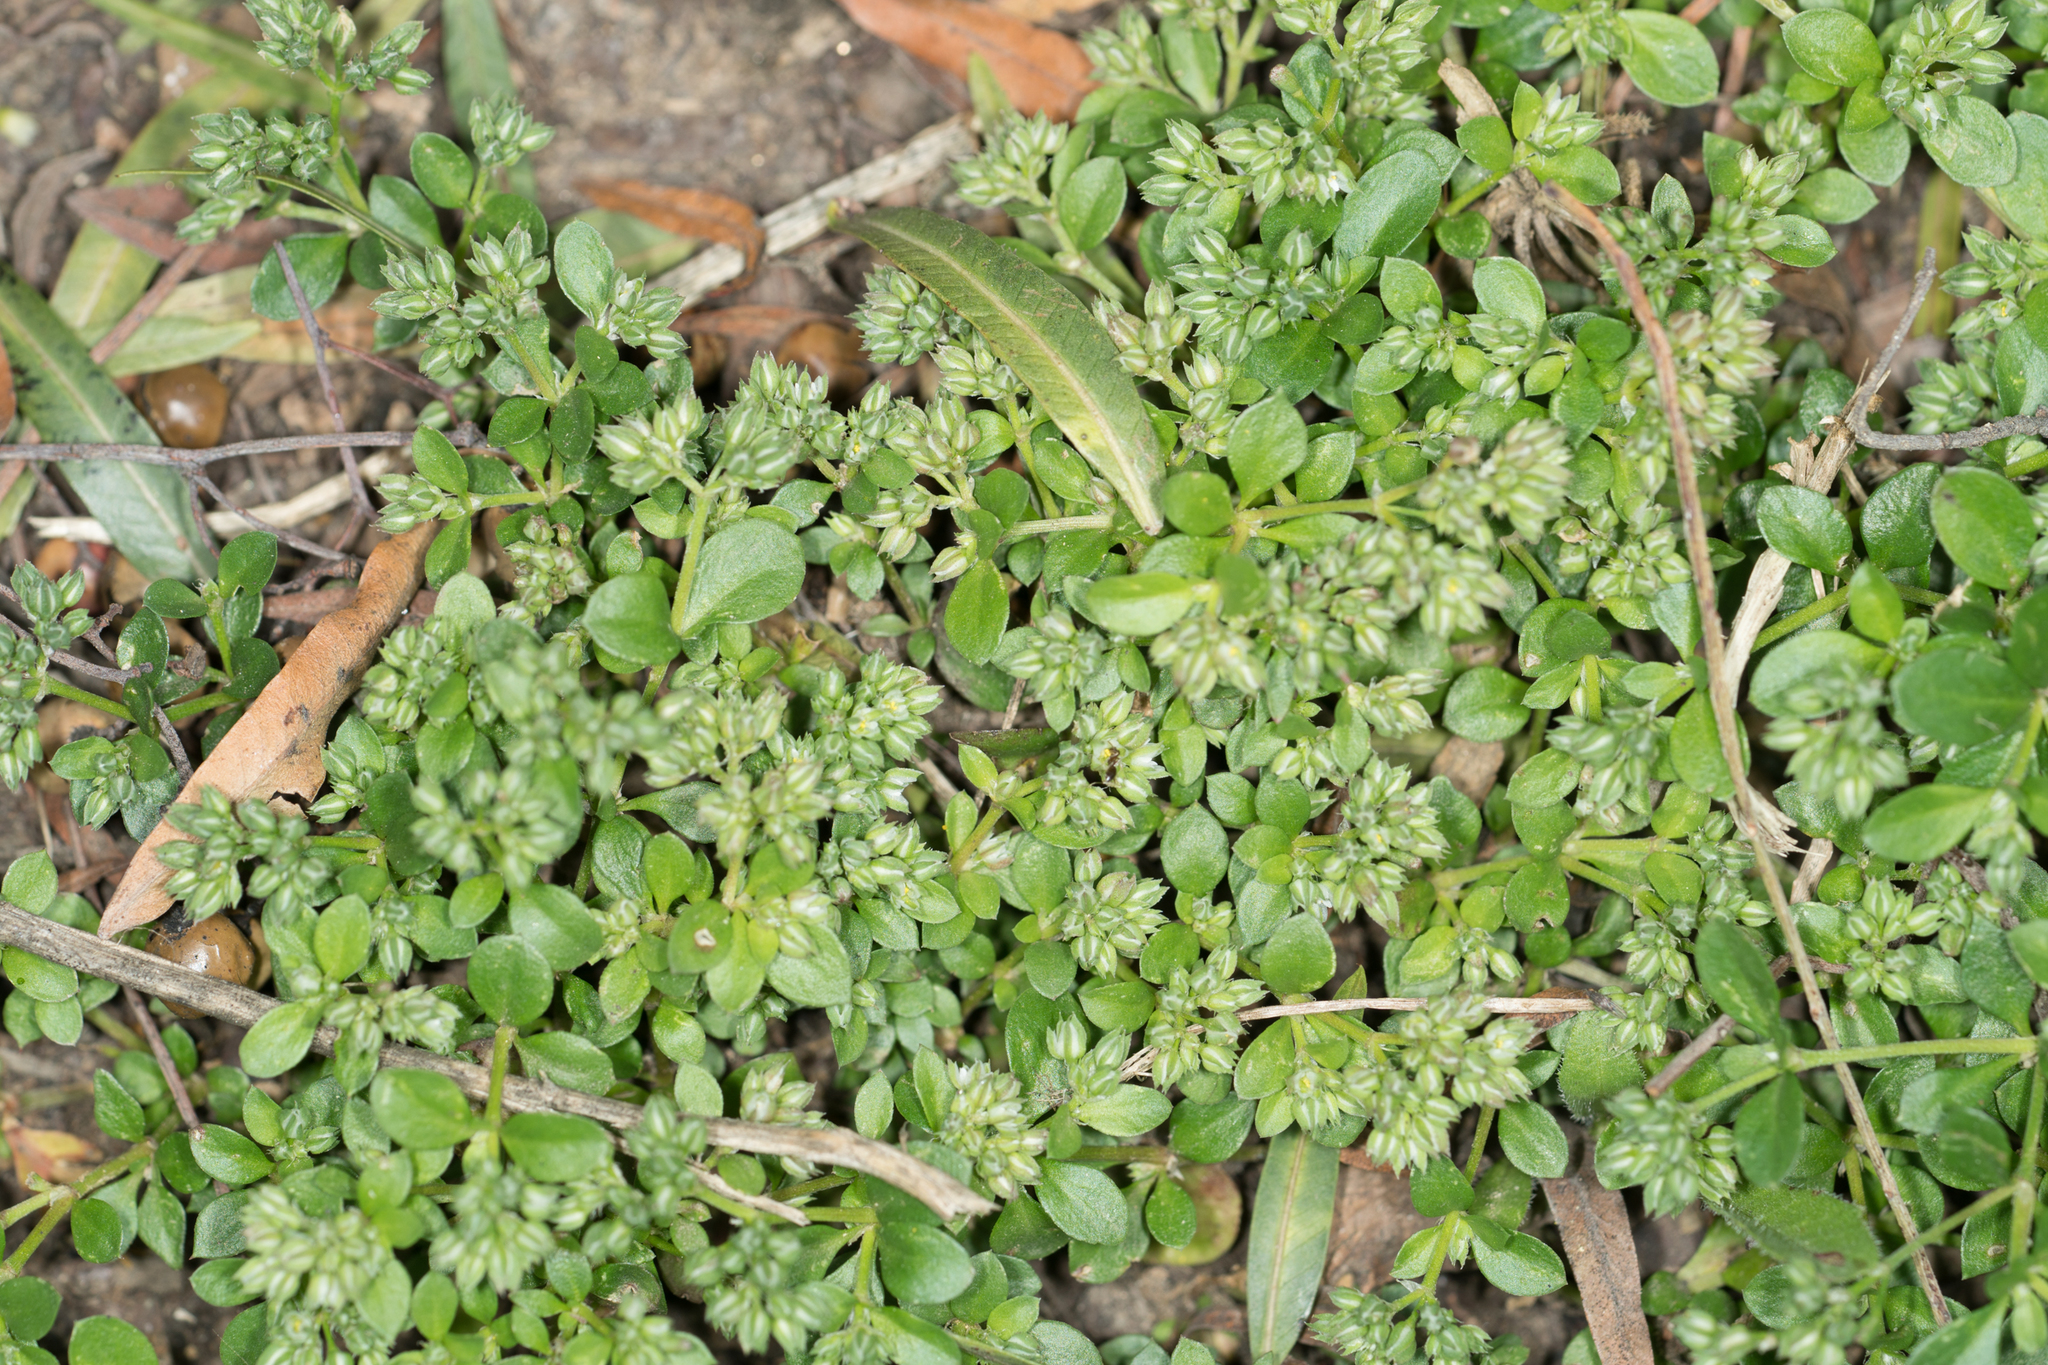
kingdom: Plantae
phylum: Tracheophyta
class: Magnoliopsida
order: Caryophyllales
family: Caryophyllaceae
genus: Polycarpon
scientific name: Polycarpon tetraphyllum
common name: Four-leaved all-seed
